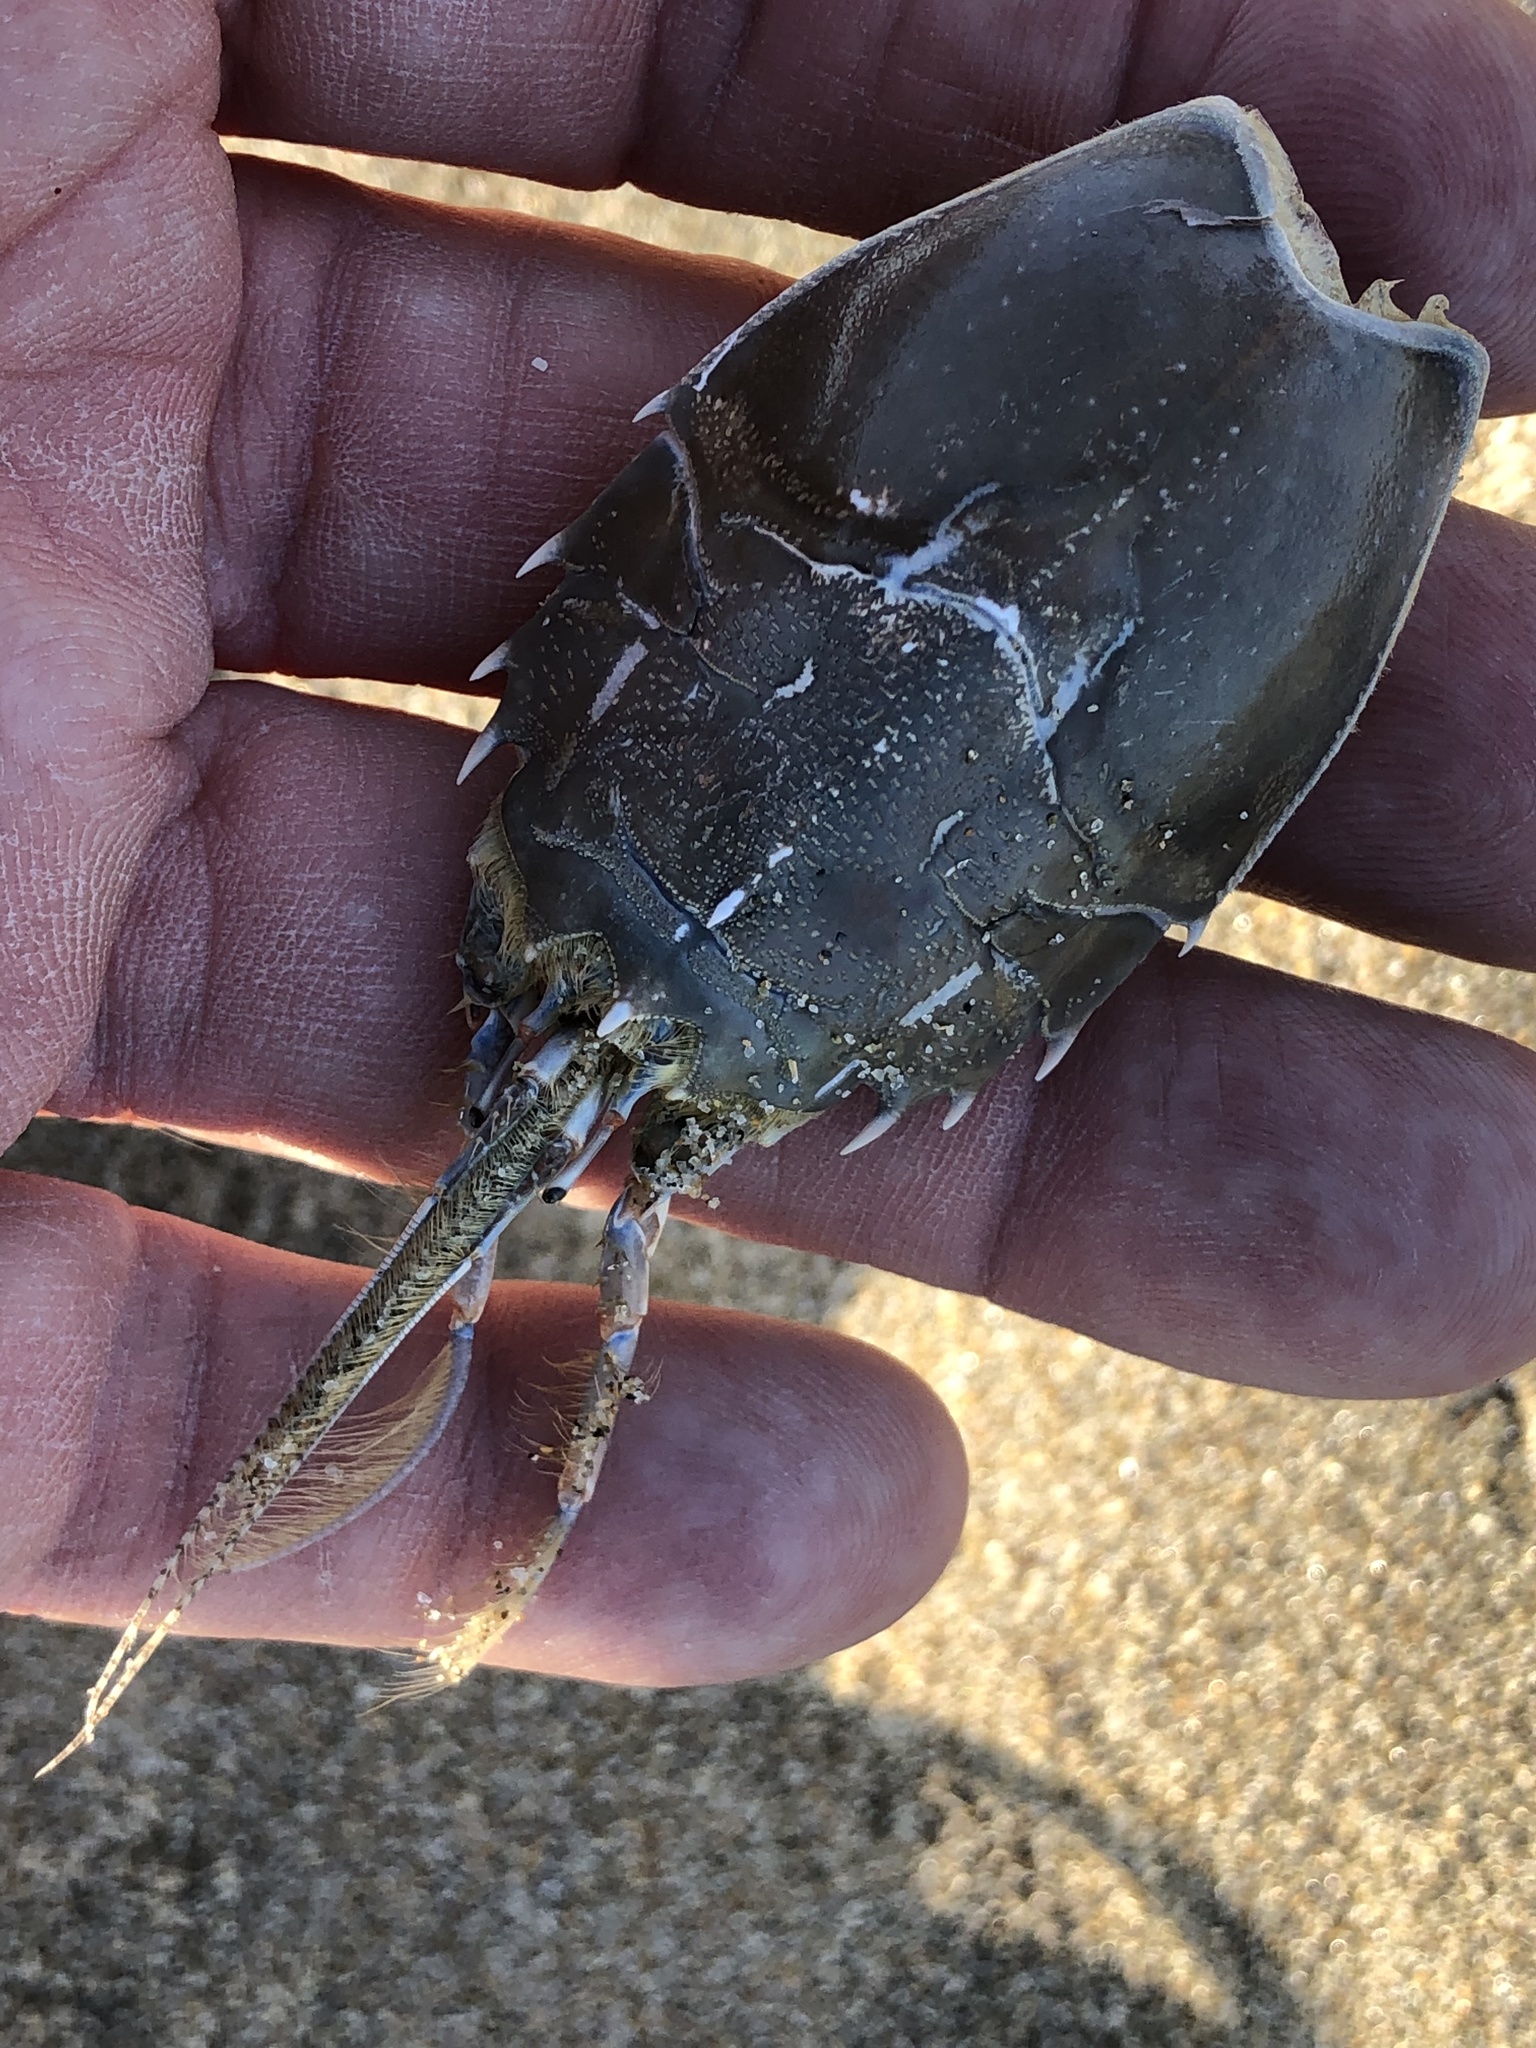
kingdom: Animalia
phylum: Arthropoda
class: Malacostraca
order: Decapoda
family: Blepharipodidae
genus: Blepharipoda
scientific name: Blepharipoda occidentalis
